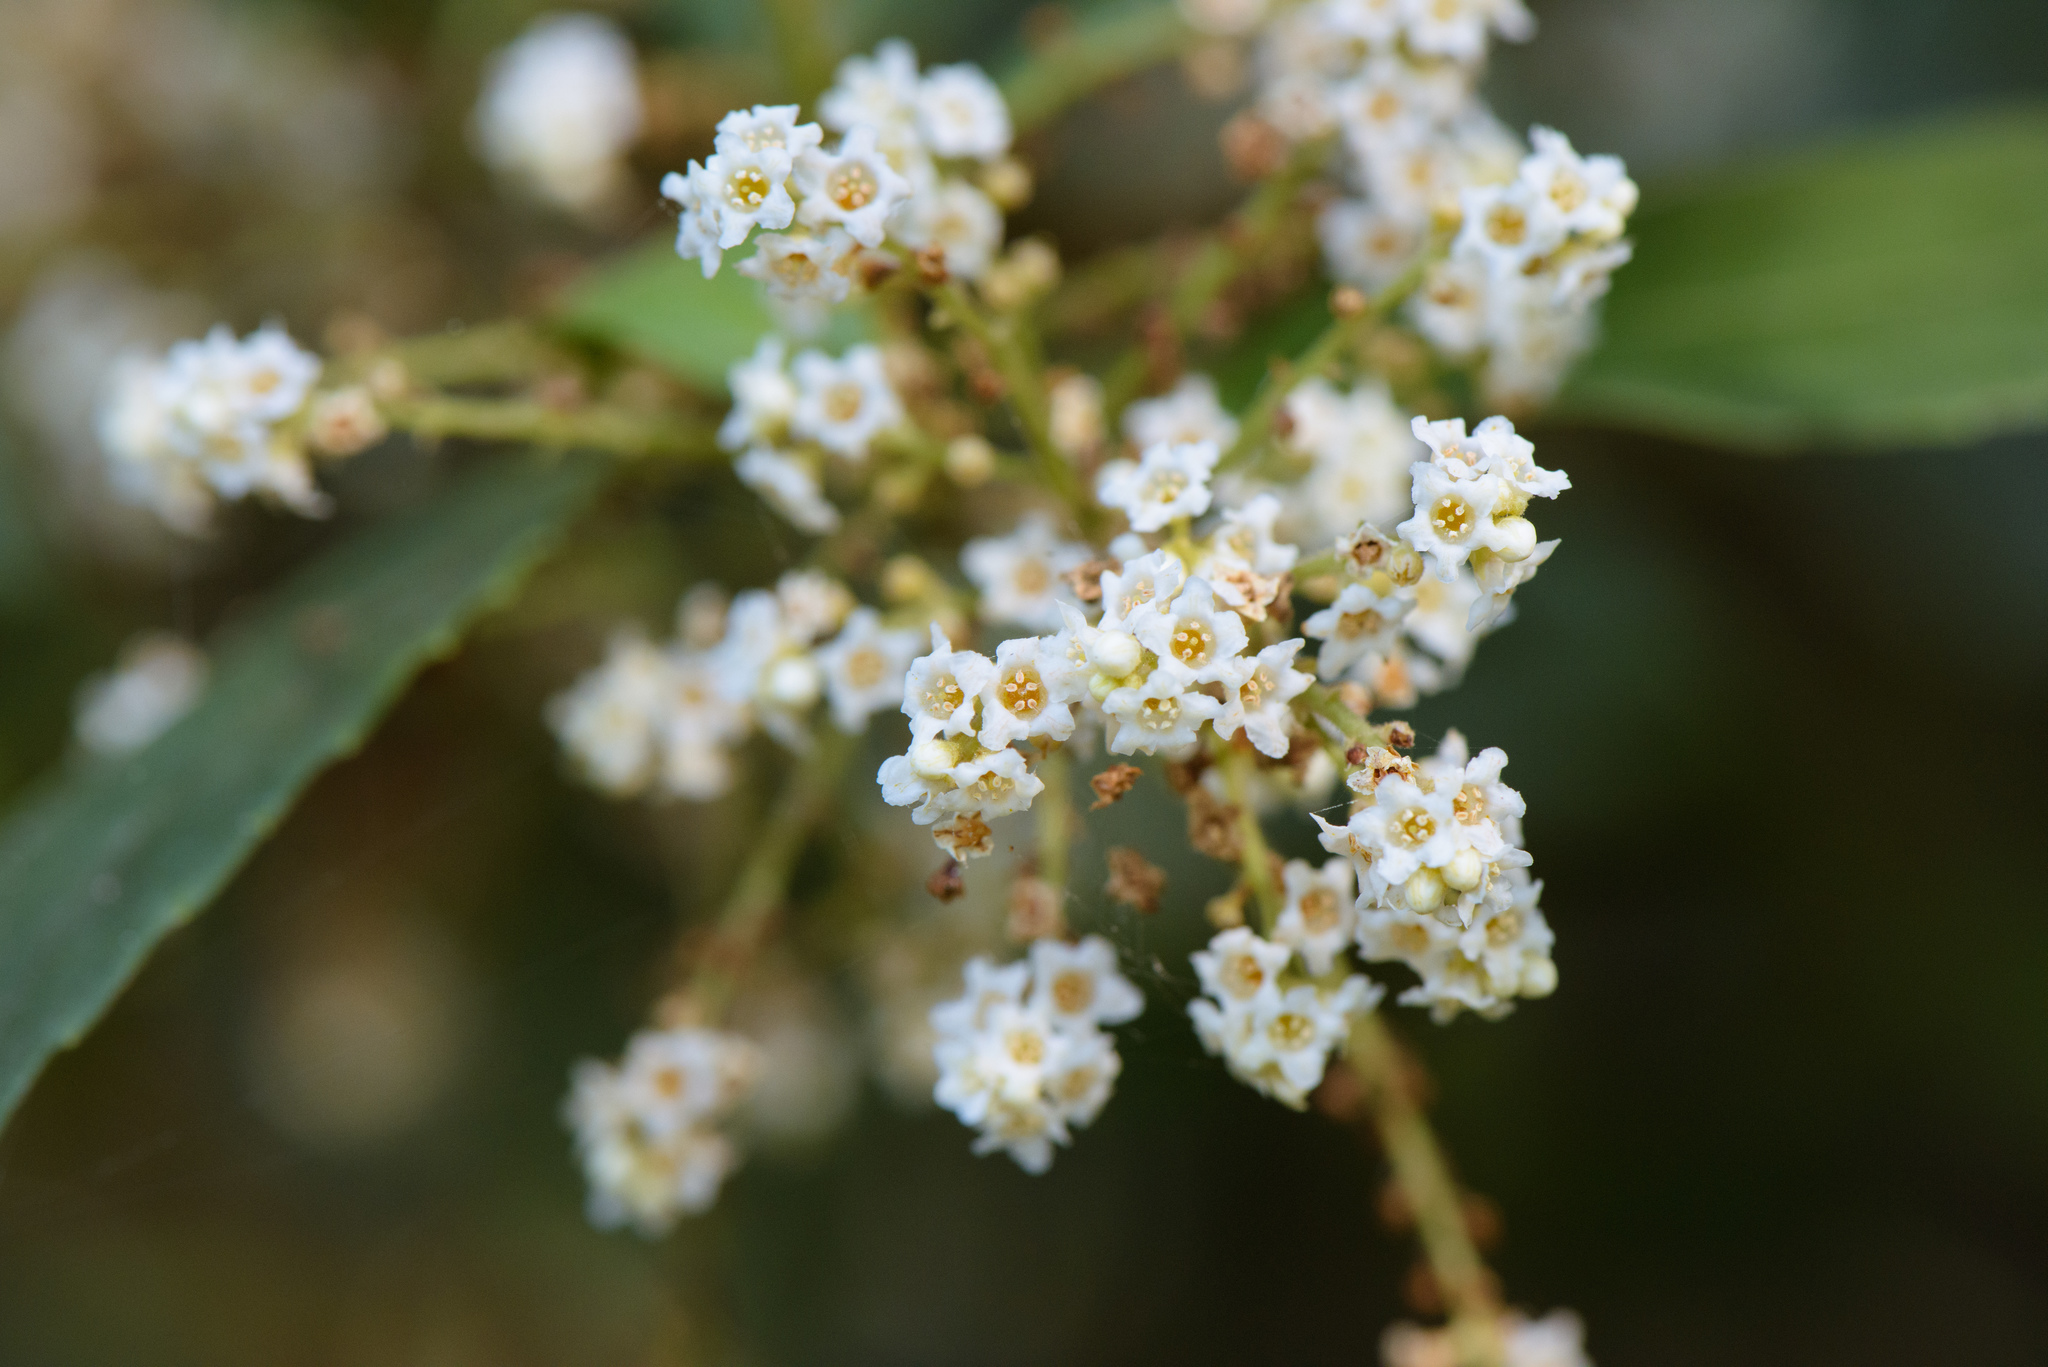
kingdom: Plantae
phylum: Tracheophyta
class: Magnoliopsida
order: Ericales
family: Primulaceae
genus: Maesa
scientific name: Maesa perlaria
